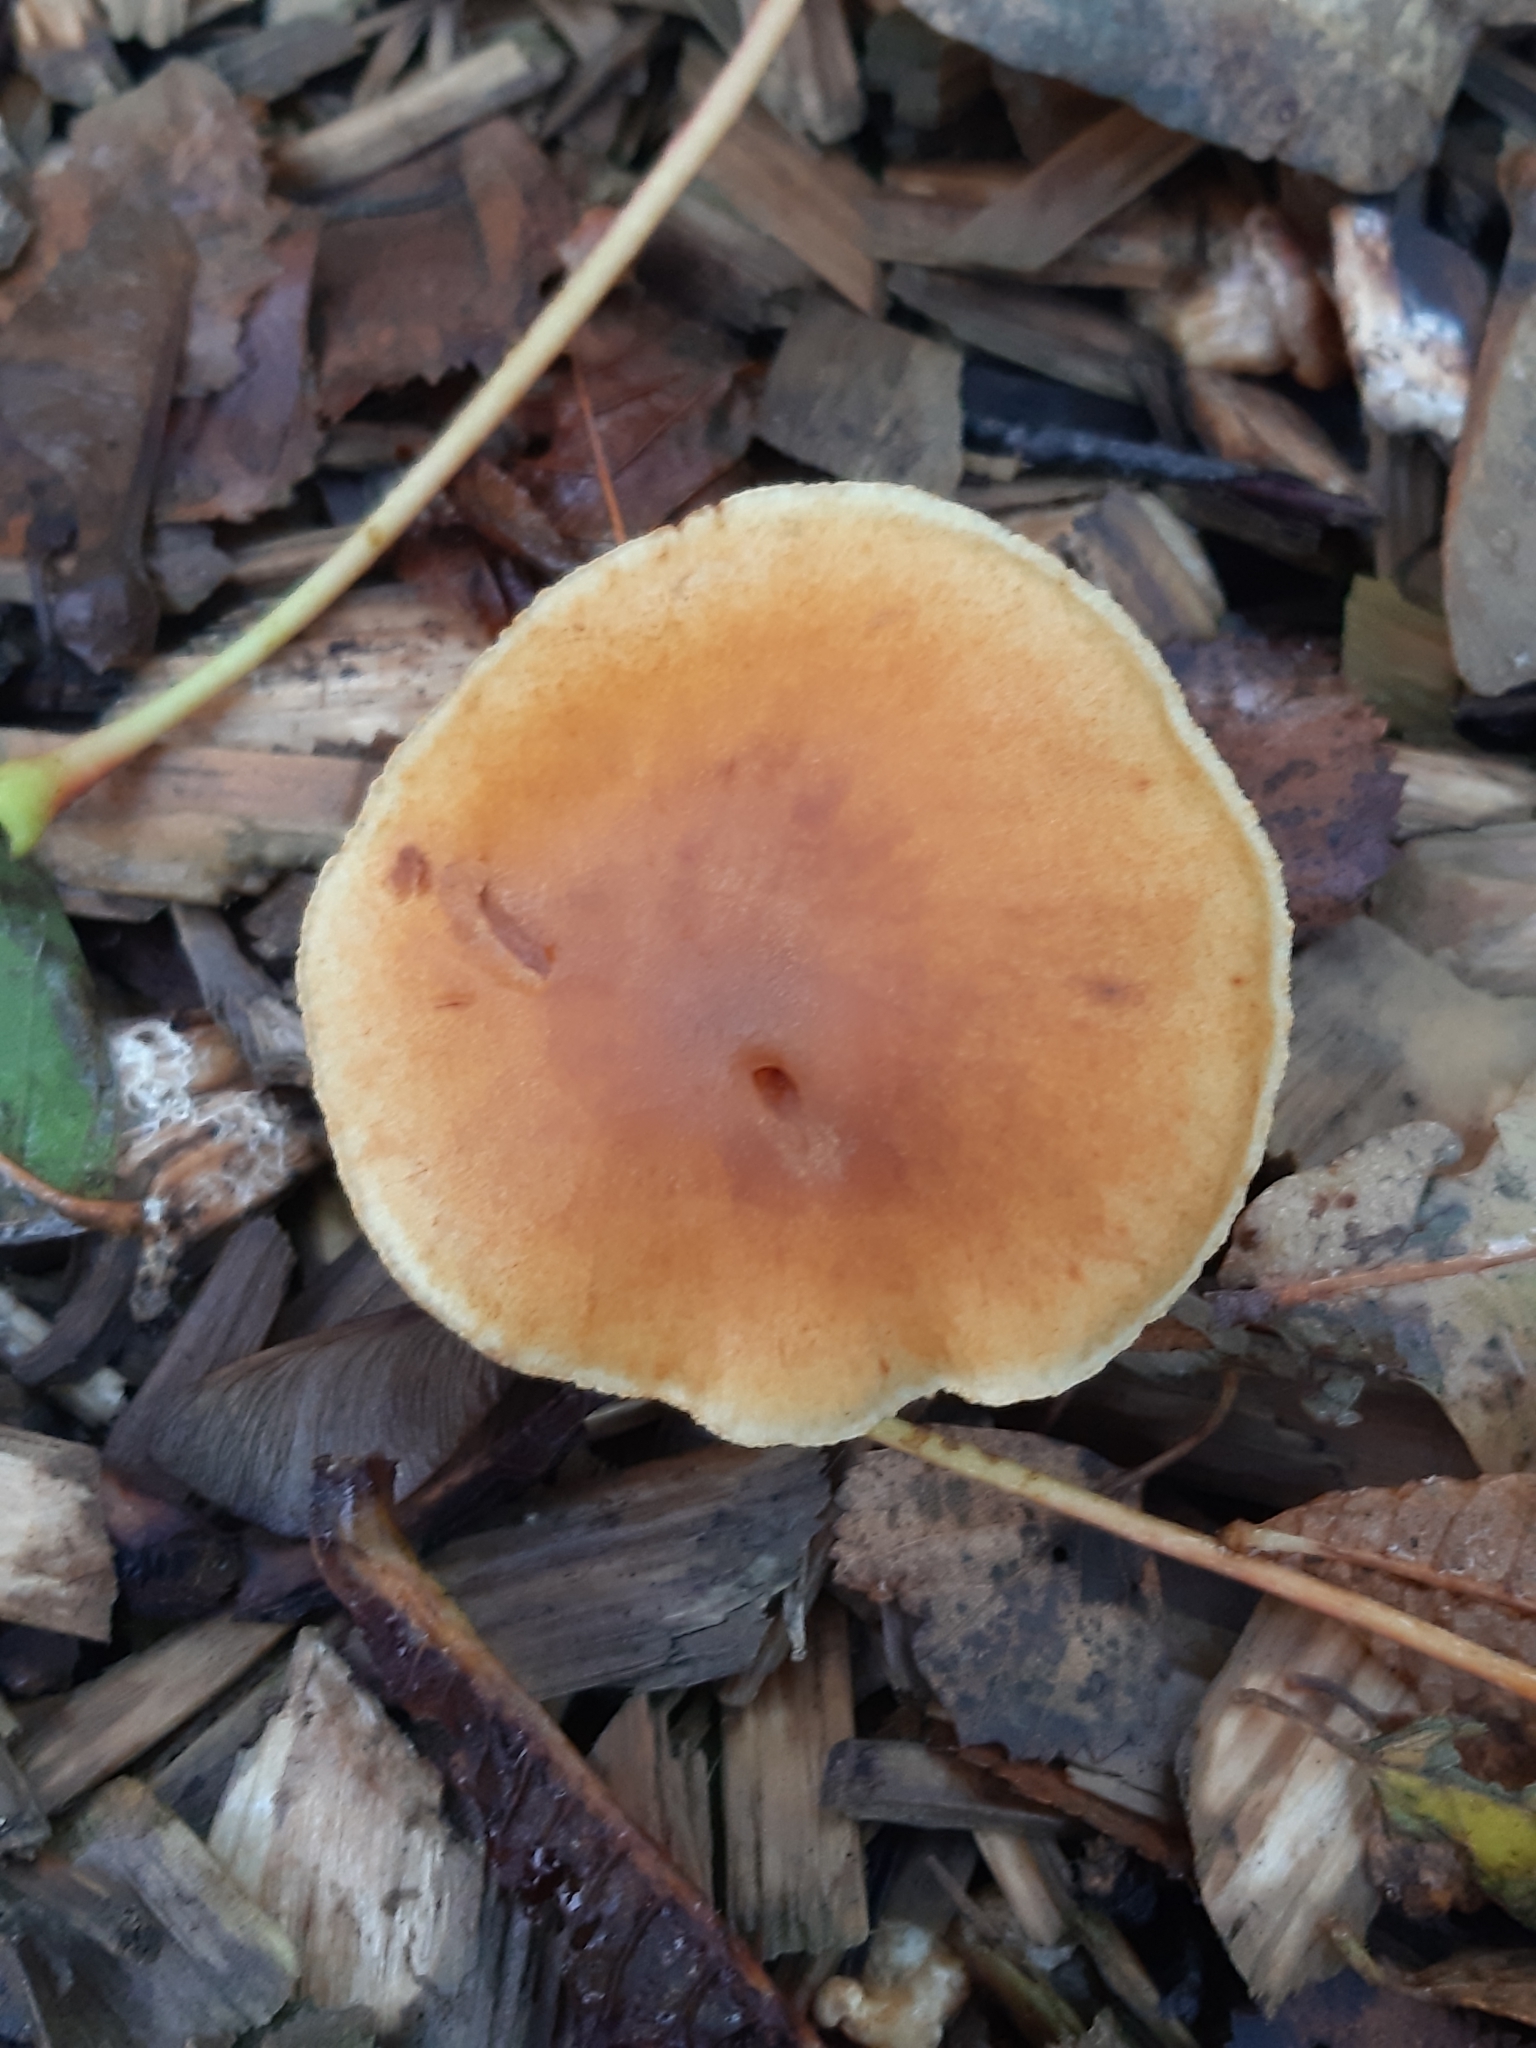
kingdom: Fungi
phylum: Basidiomycota
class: Agaricomycetes
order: Agaricales
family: Hymenogastraceae
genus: Gymnopilus
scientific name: Gymnopilus penetrans
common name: Common rustgill
